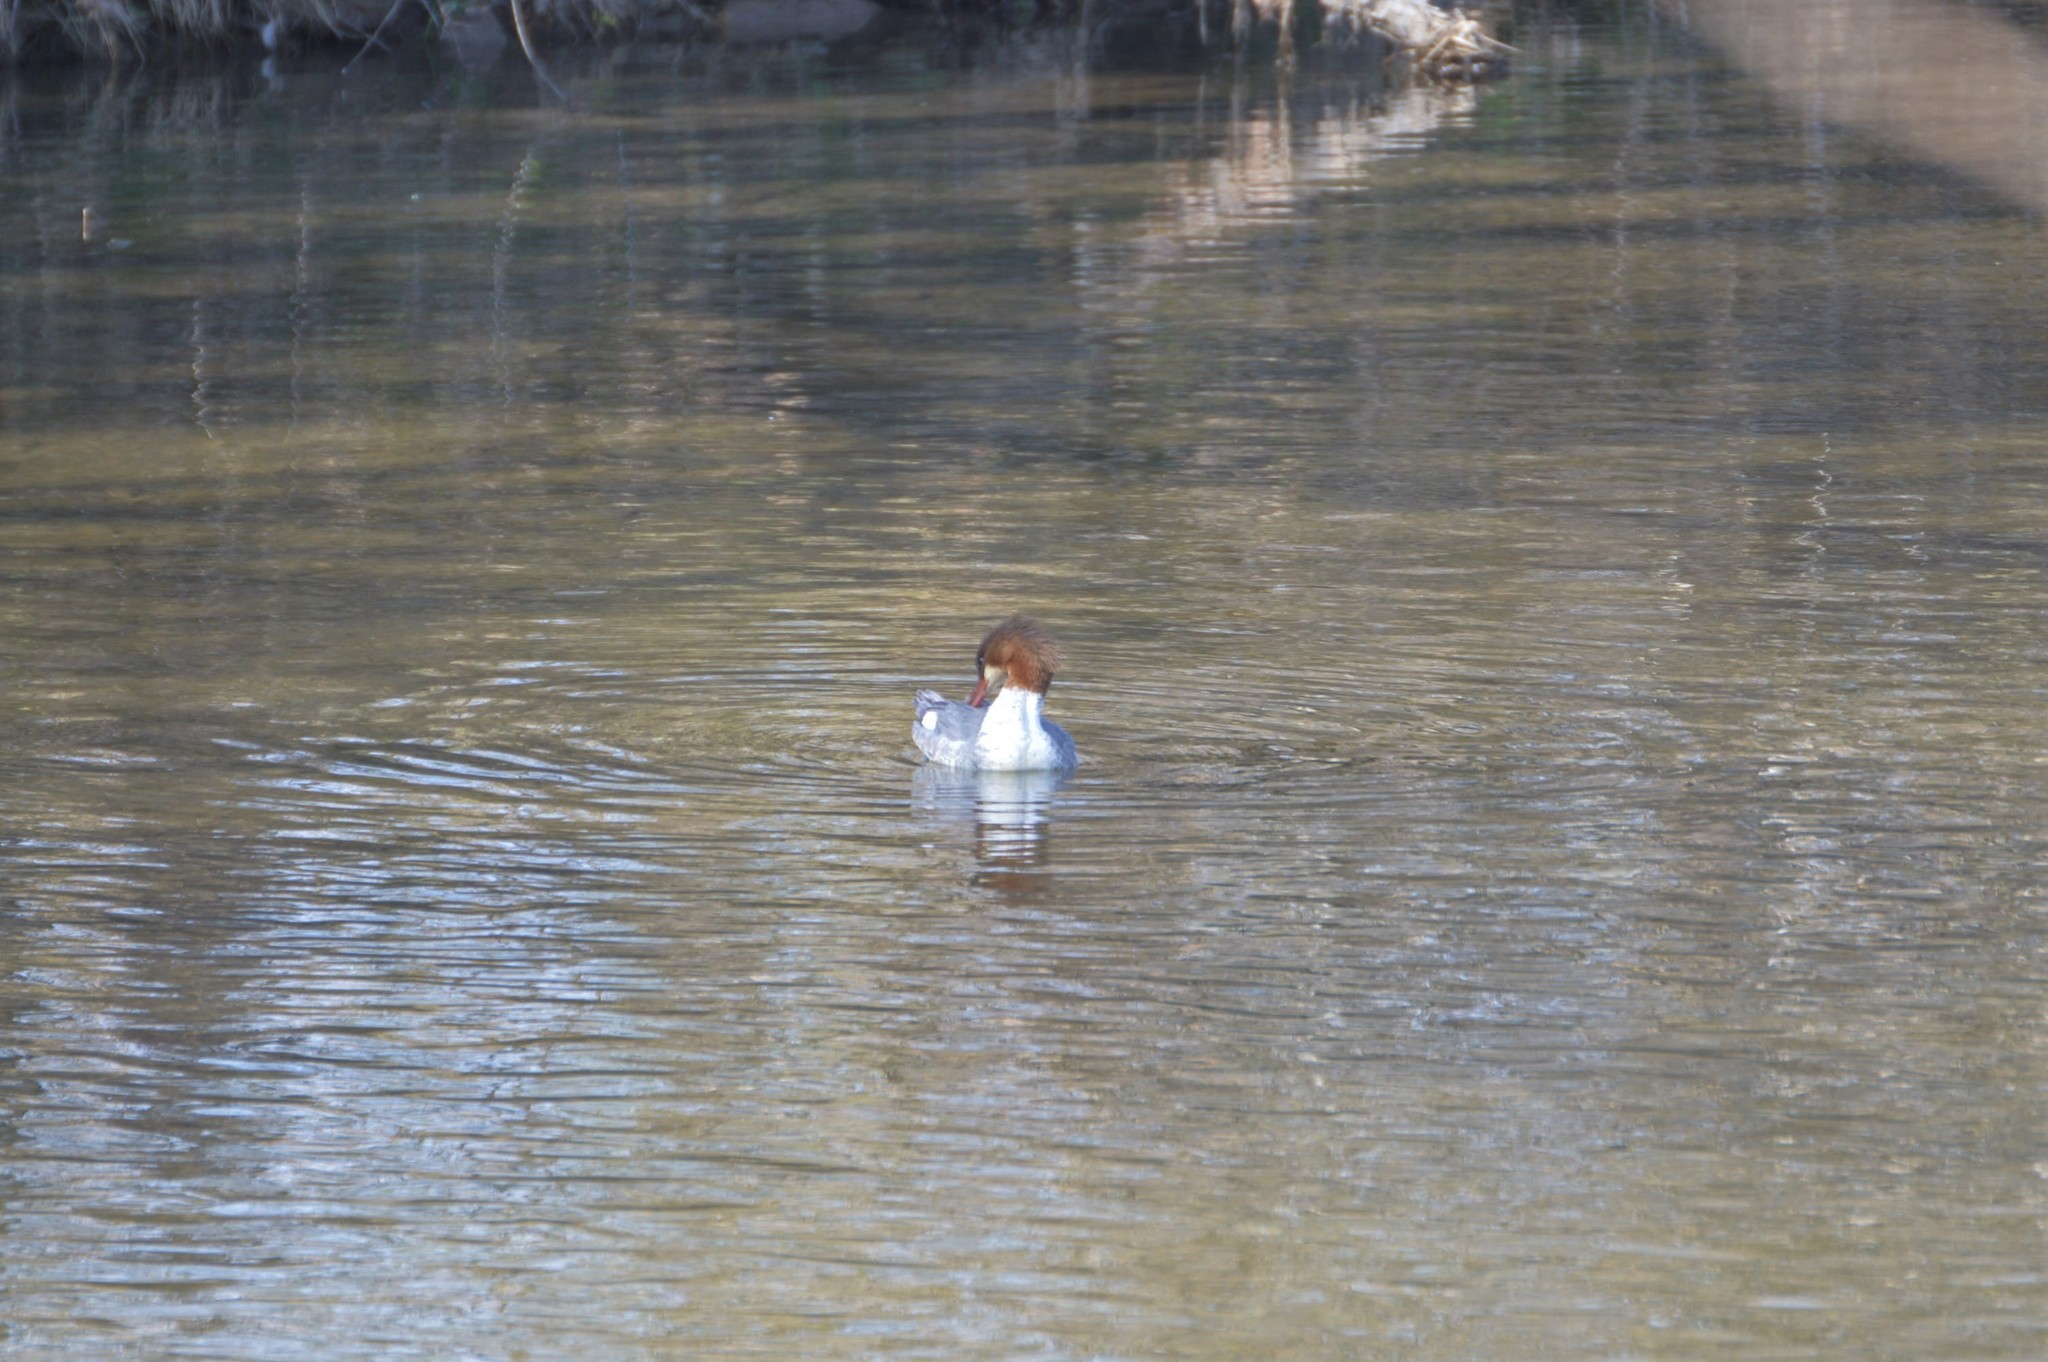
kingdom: Animalia
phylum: Chordata
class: Aves
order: Anseriformes
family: Anatidae
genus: Mergus
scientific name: Mergus merganser
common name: Common merganser
